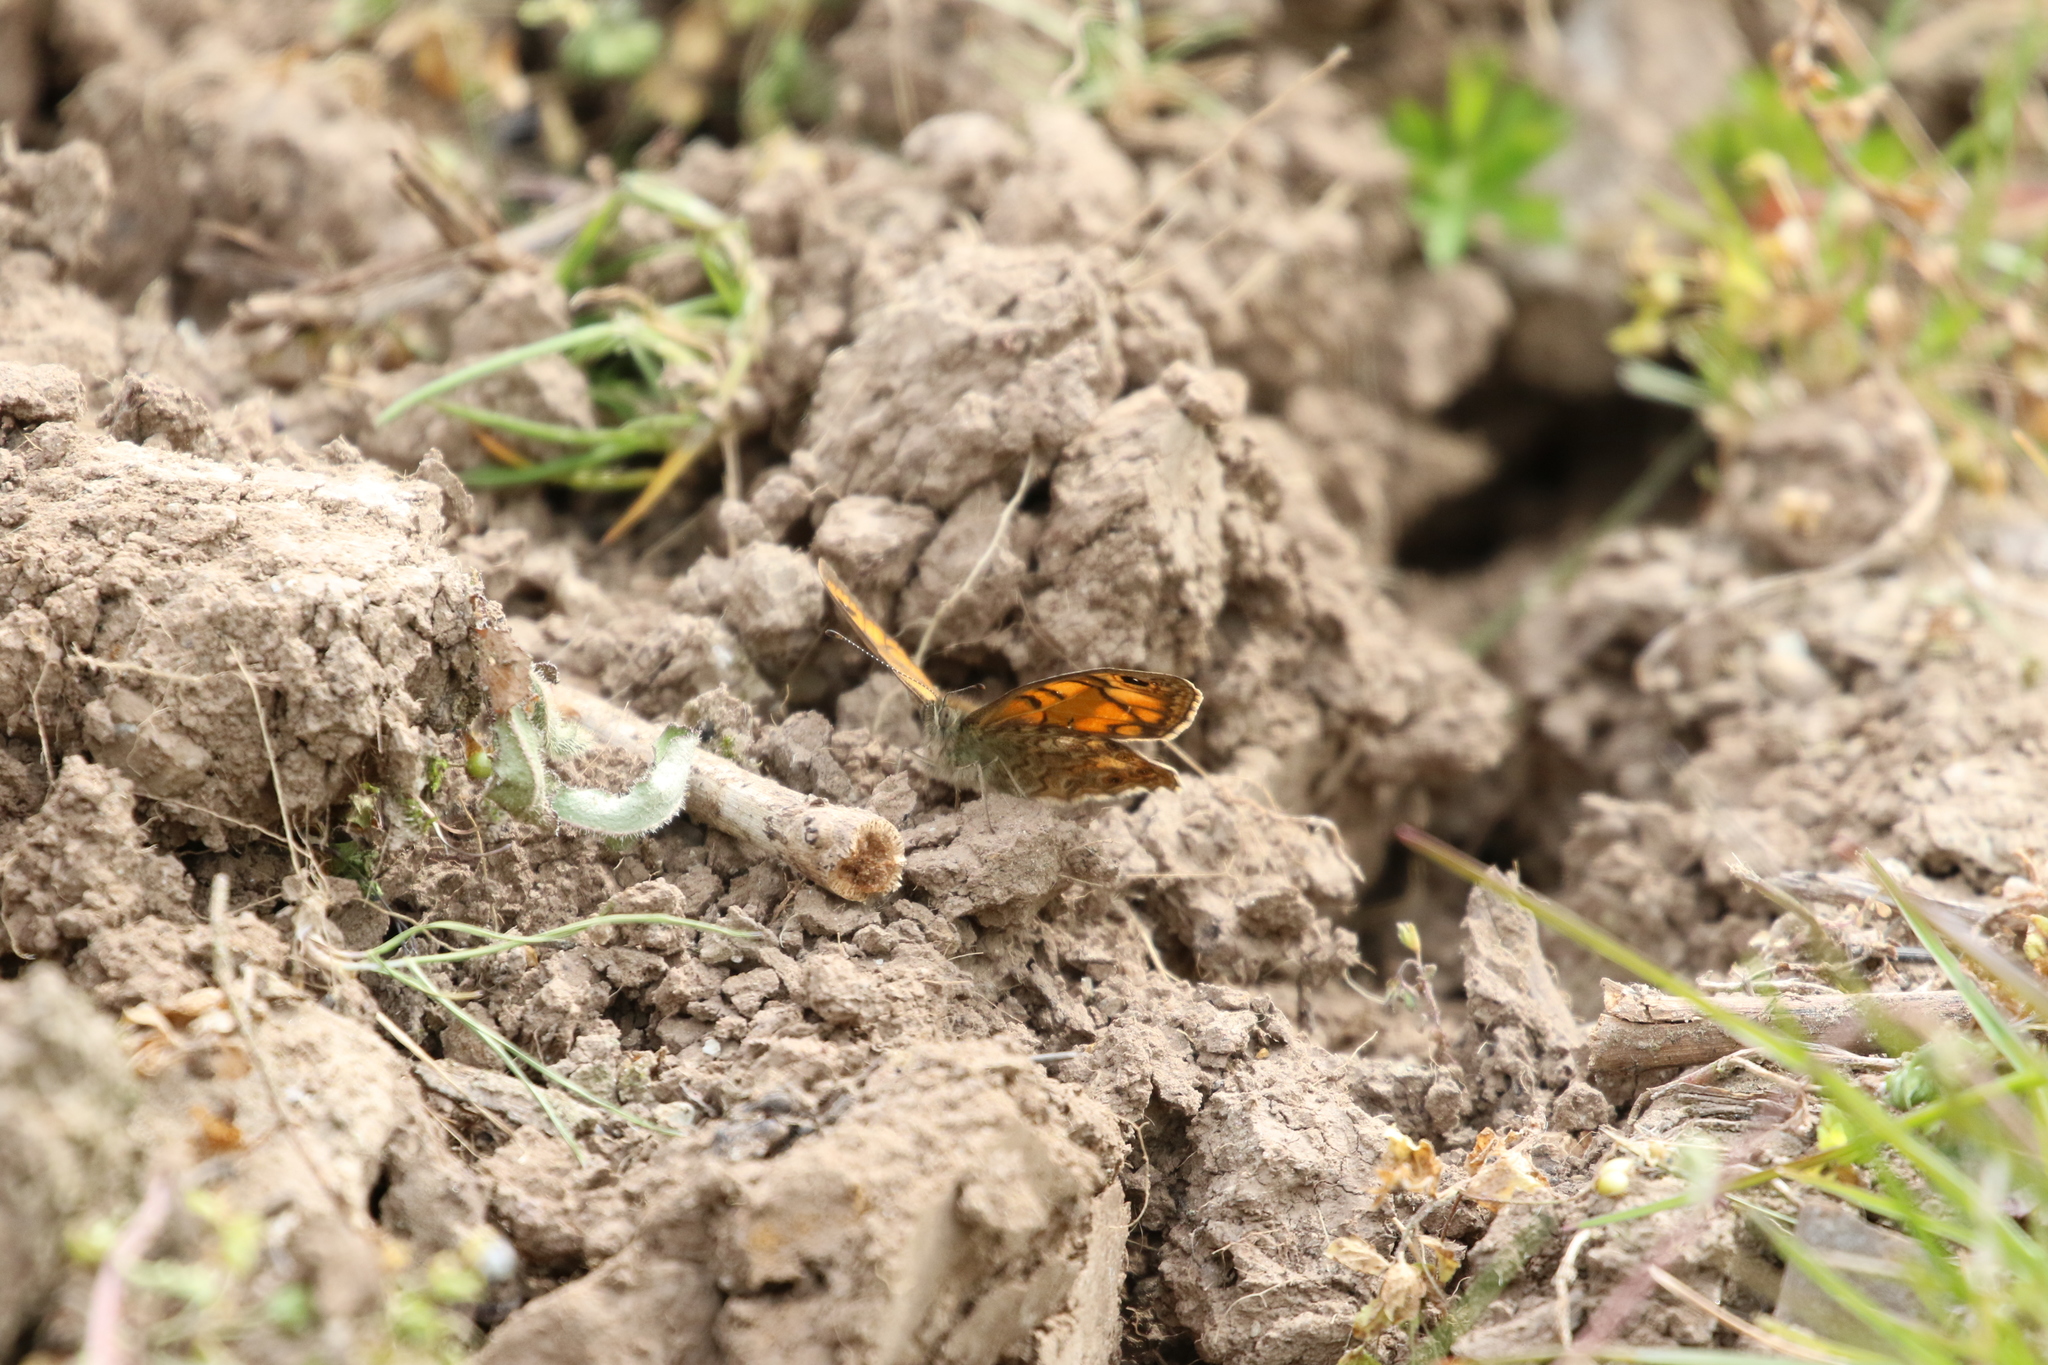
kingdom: Animalia
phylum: Arthropoda
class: Insecta
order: Lepidoptera
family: Nymphalidae
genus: Pararge
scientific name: Pararge Lasiommata megera
